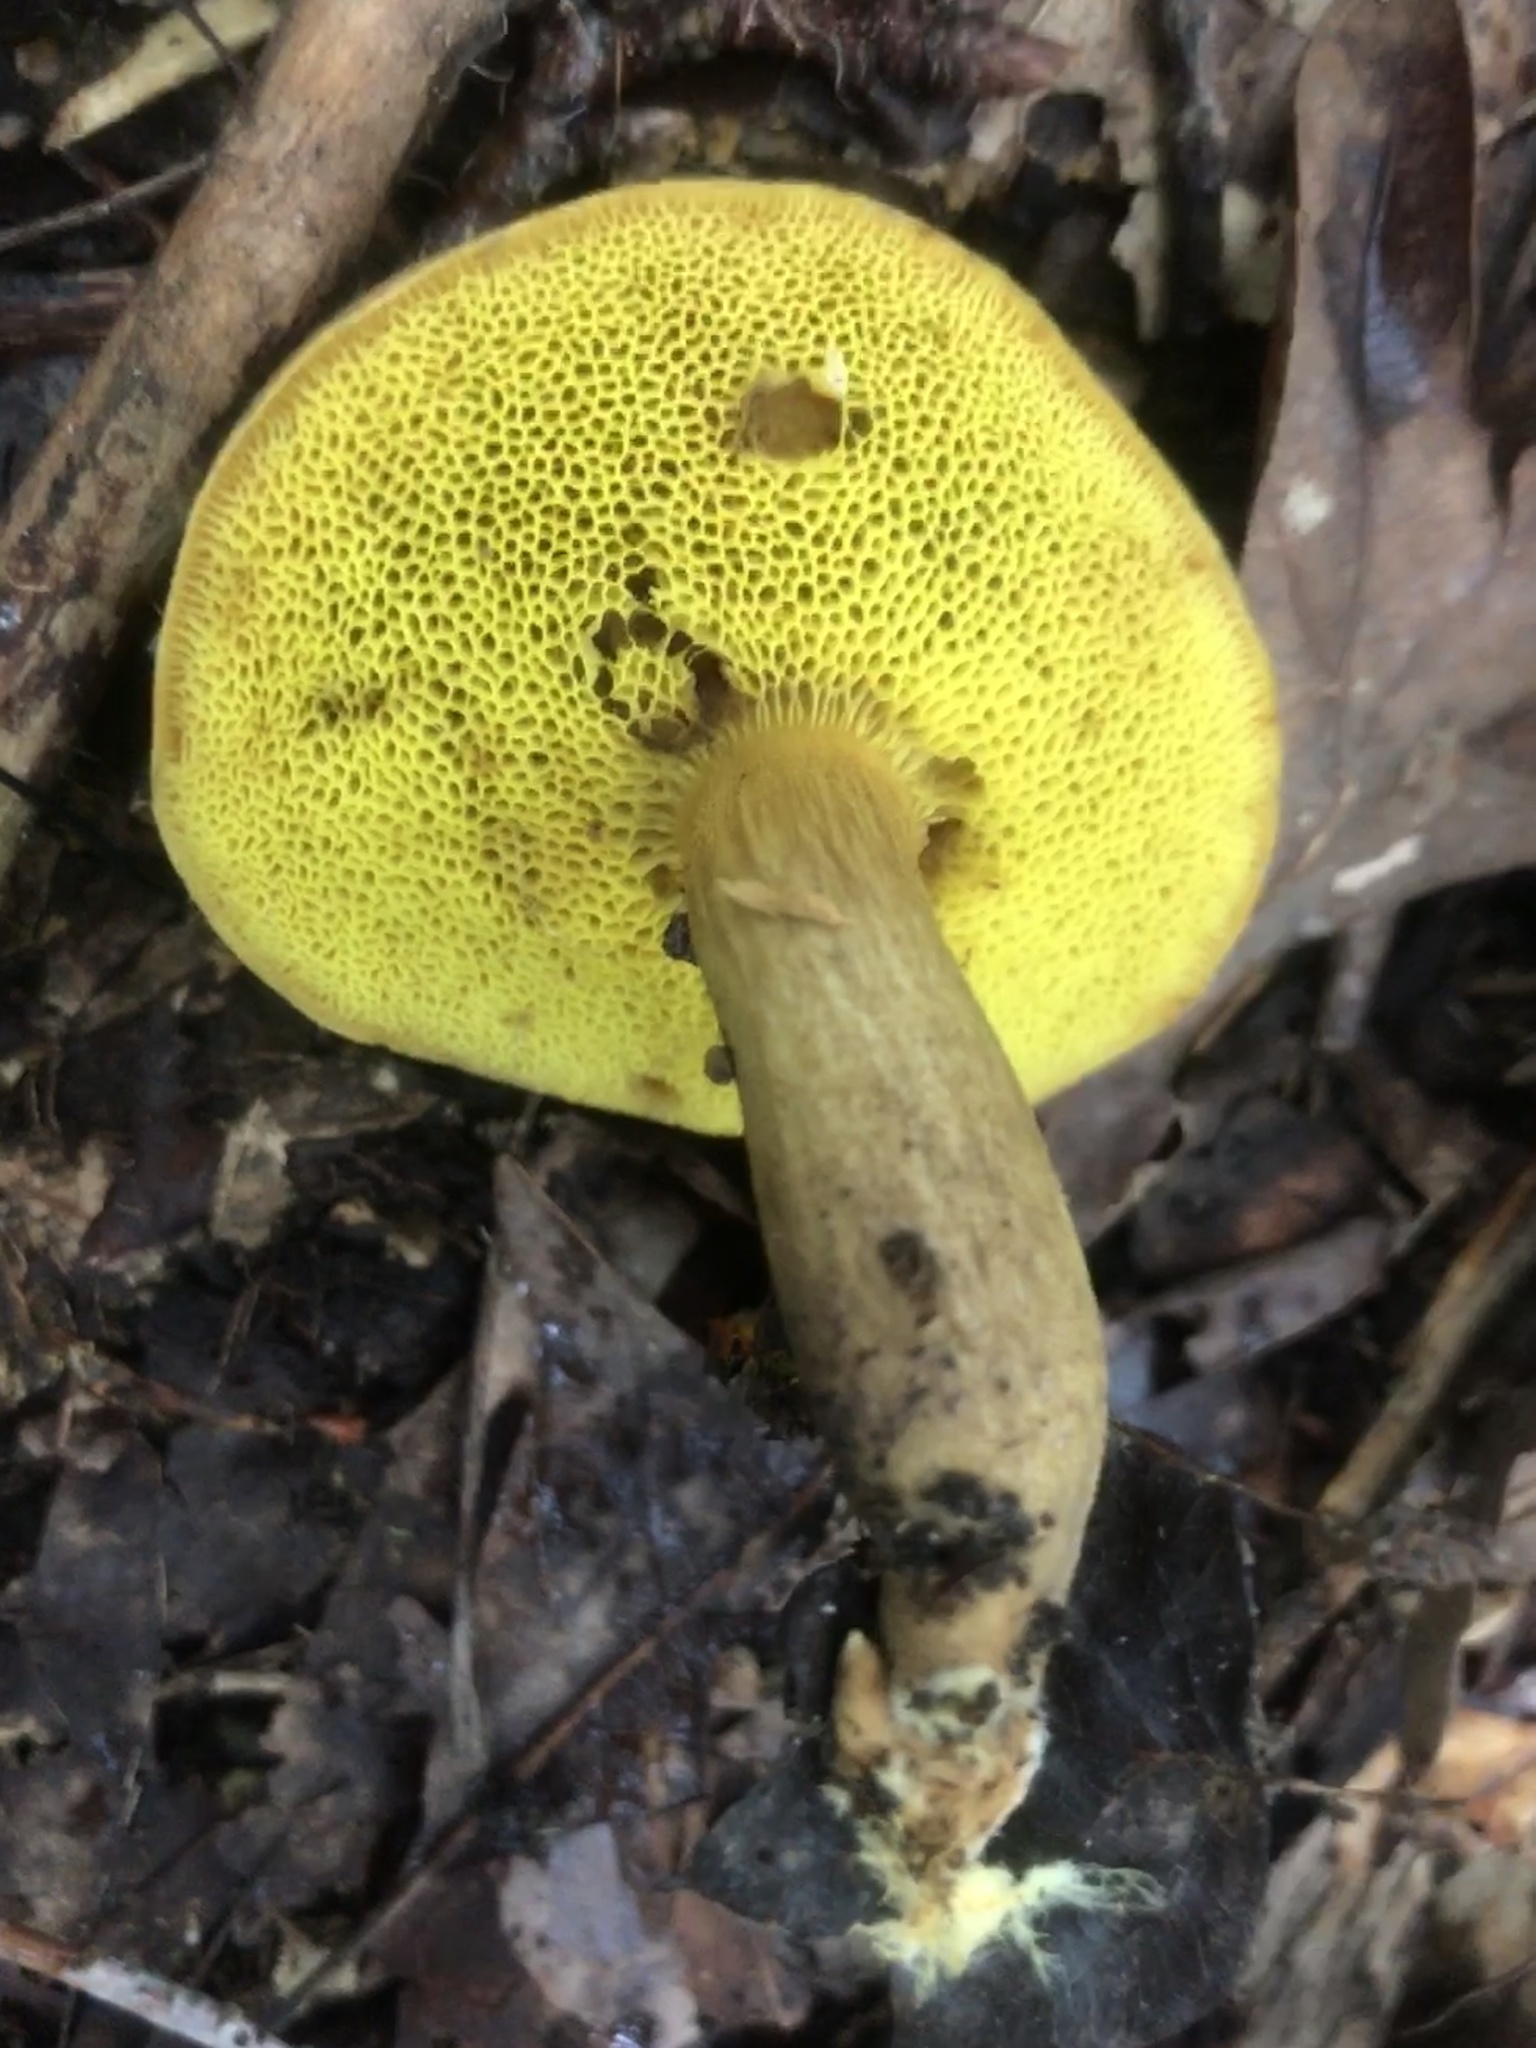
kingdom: Fungi
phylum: Basidiomycota
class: Agaricomycetes
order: Boletales
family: Boletaceae
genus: Aureoboletus
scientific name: Aureoboletus innixus
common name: Clustered brown bolete
